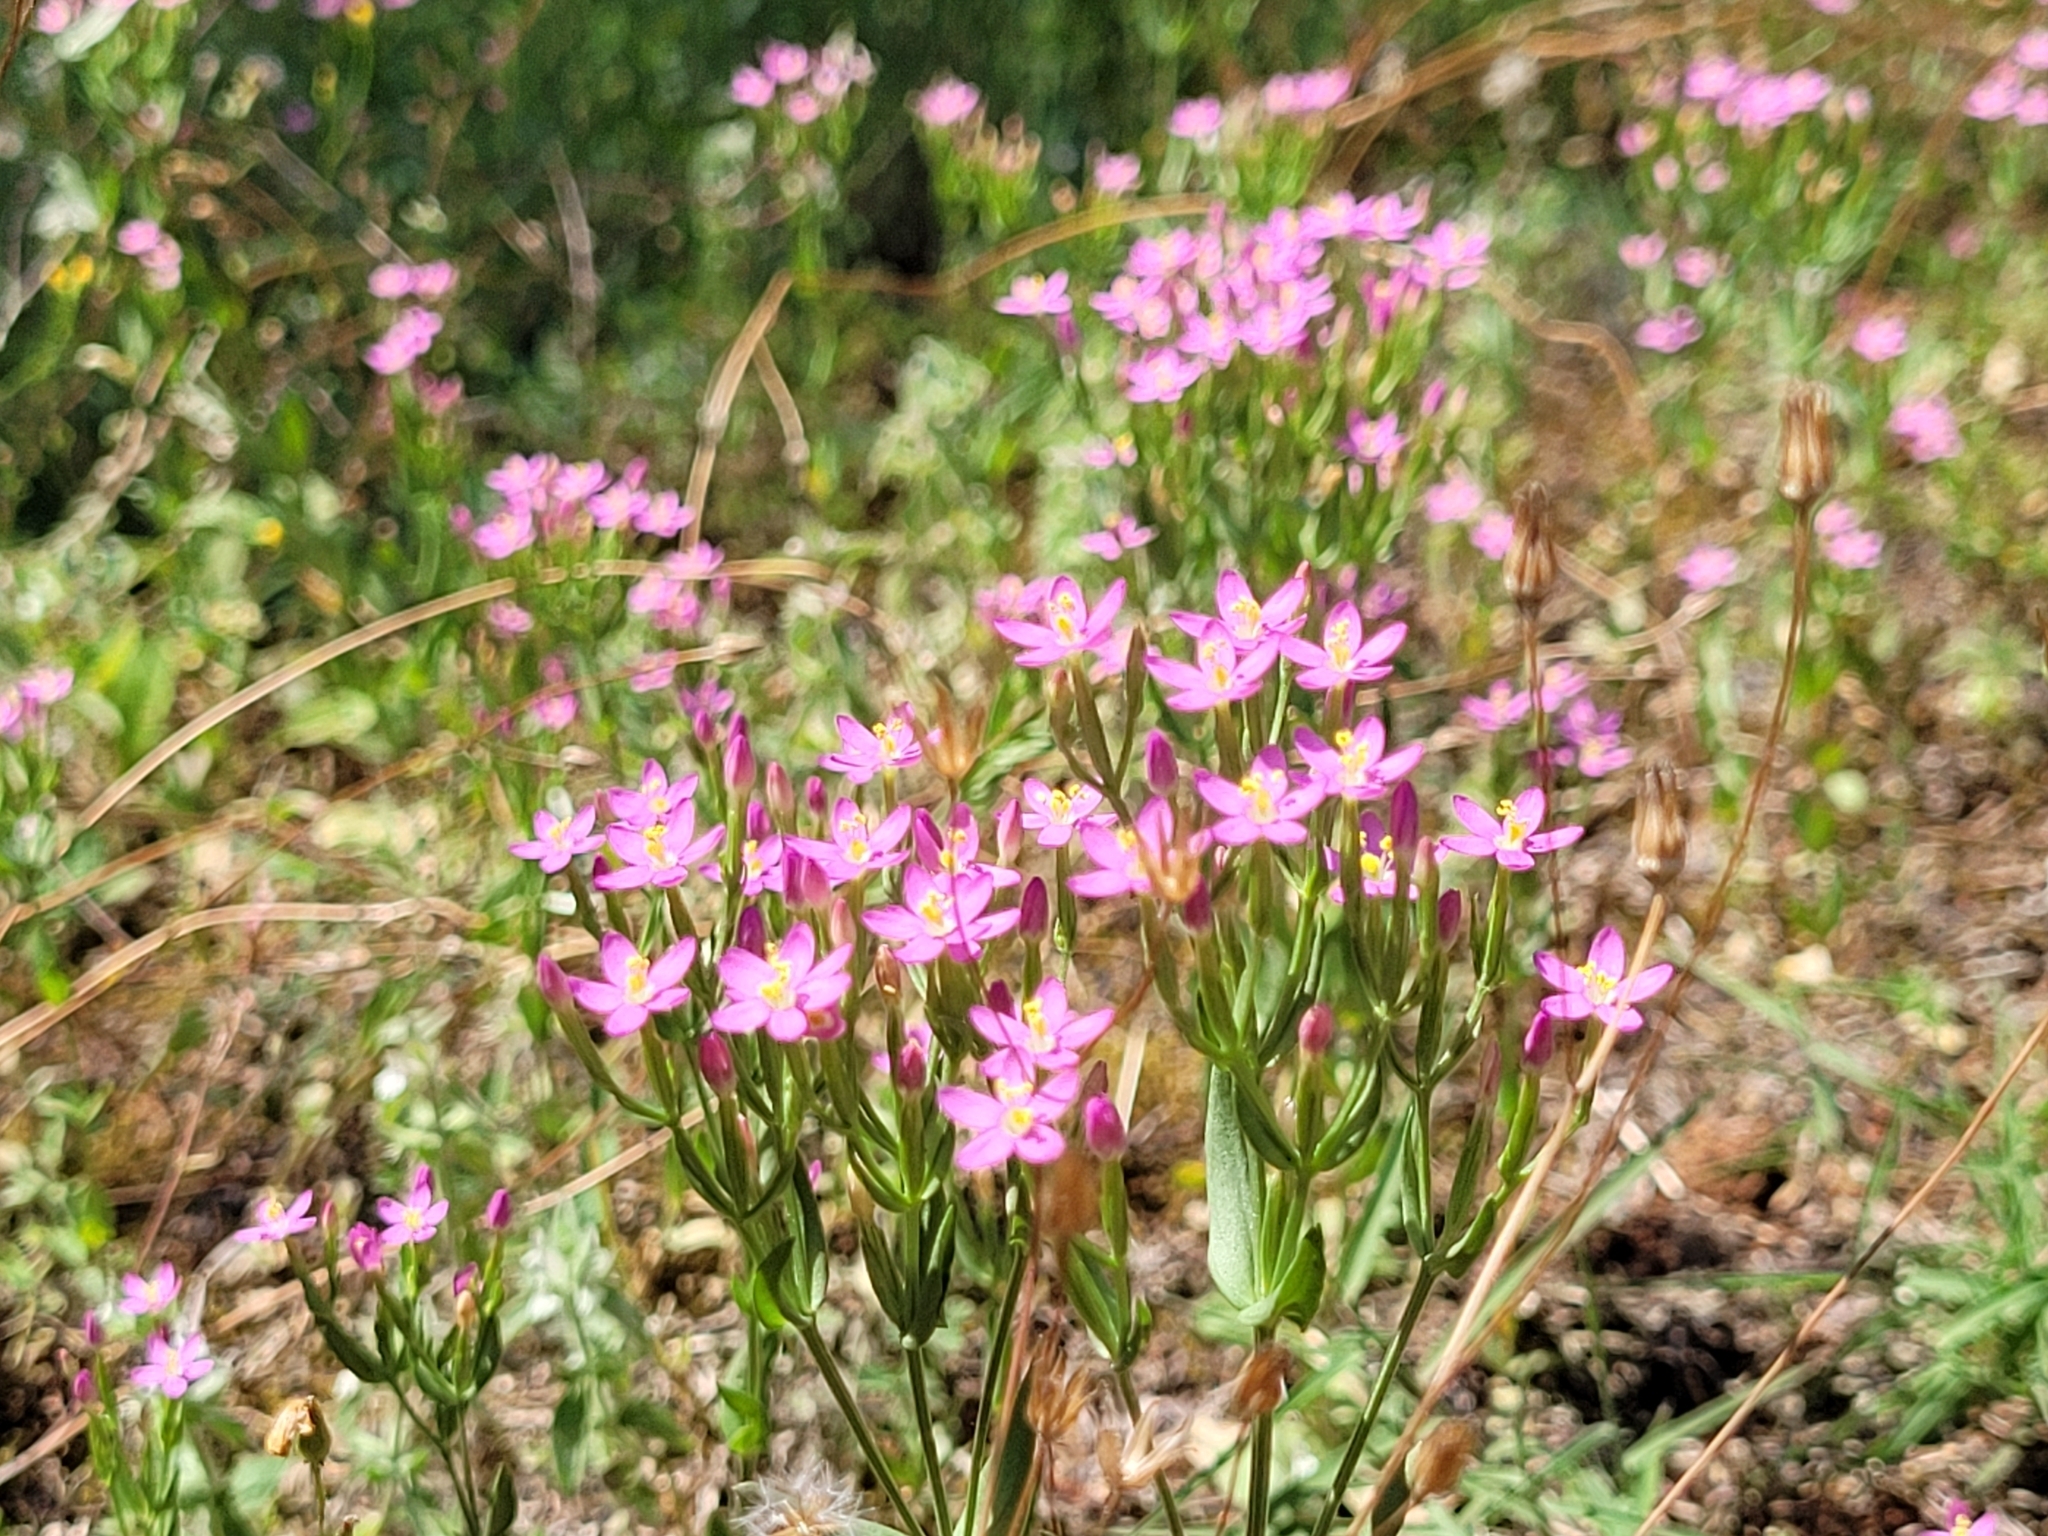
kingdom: Plantae
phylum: Tracheophyta
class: Magnoliopsida
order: Gentianales
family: Gentianaceae
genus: Centaurium
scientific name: Centaurium erythraea
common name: Common centaury
